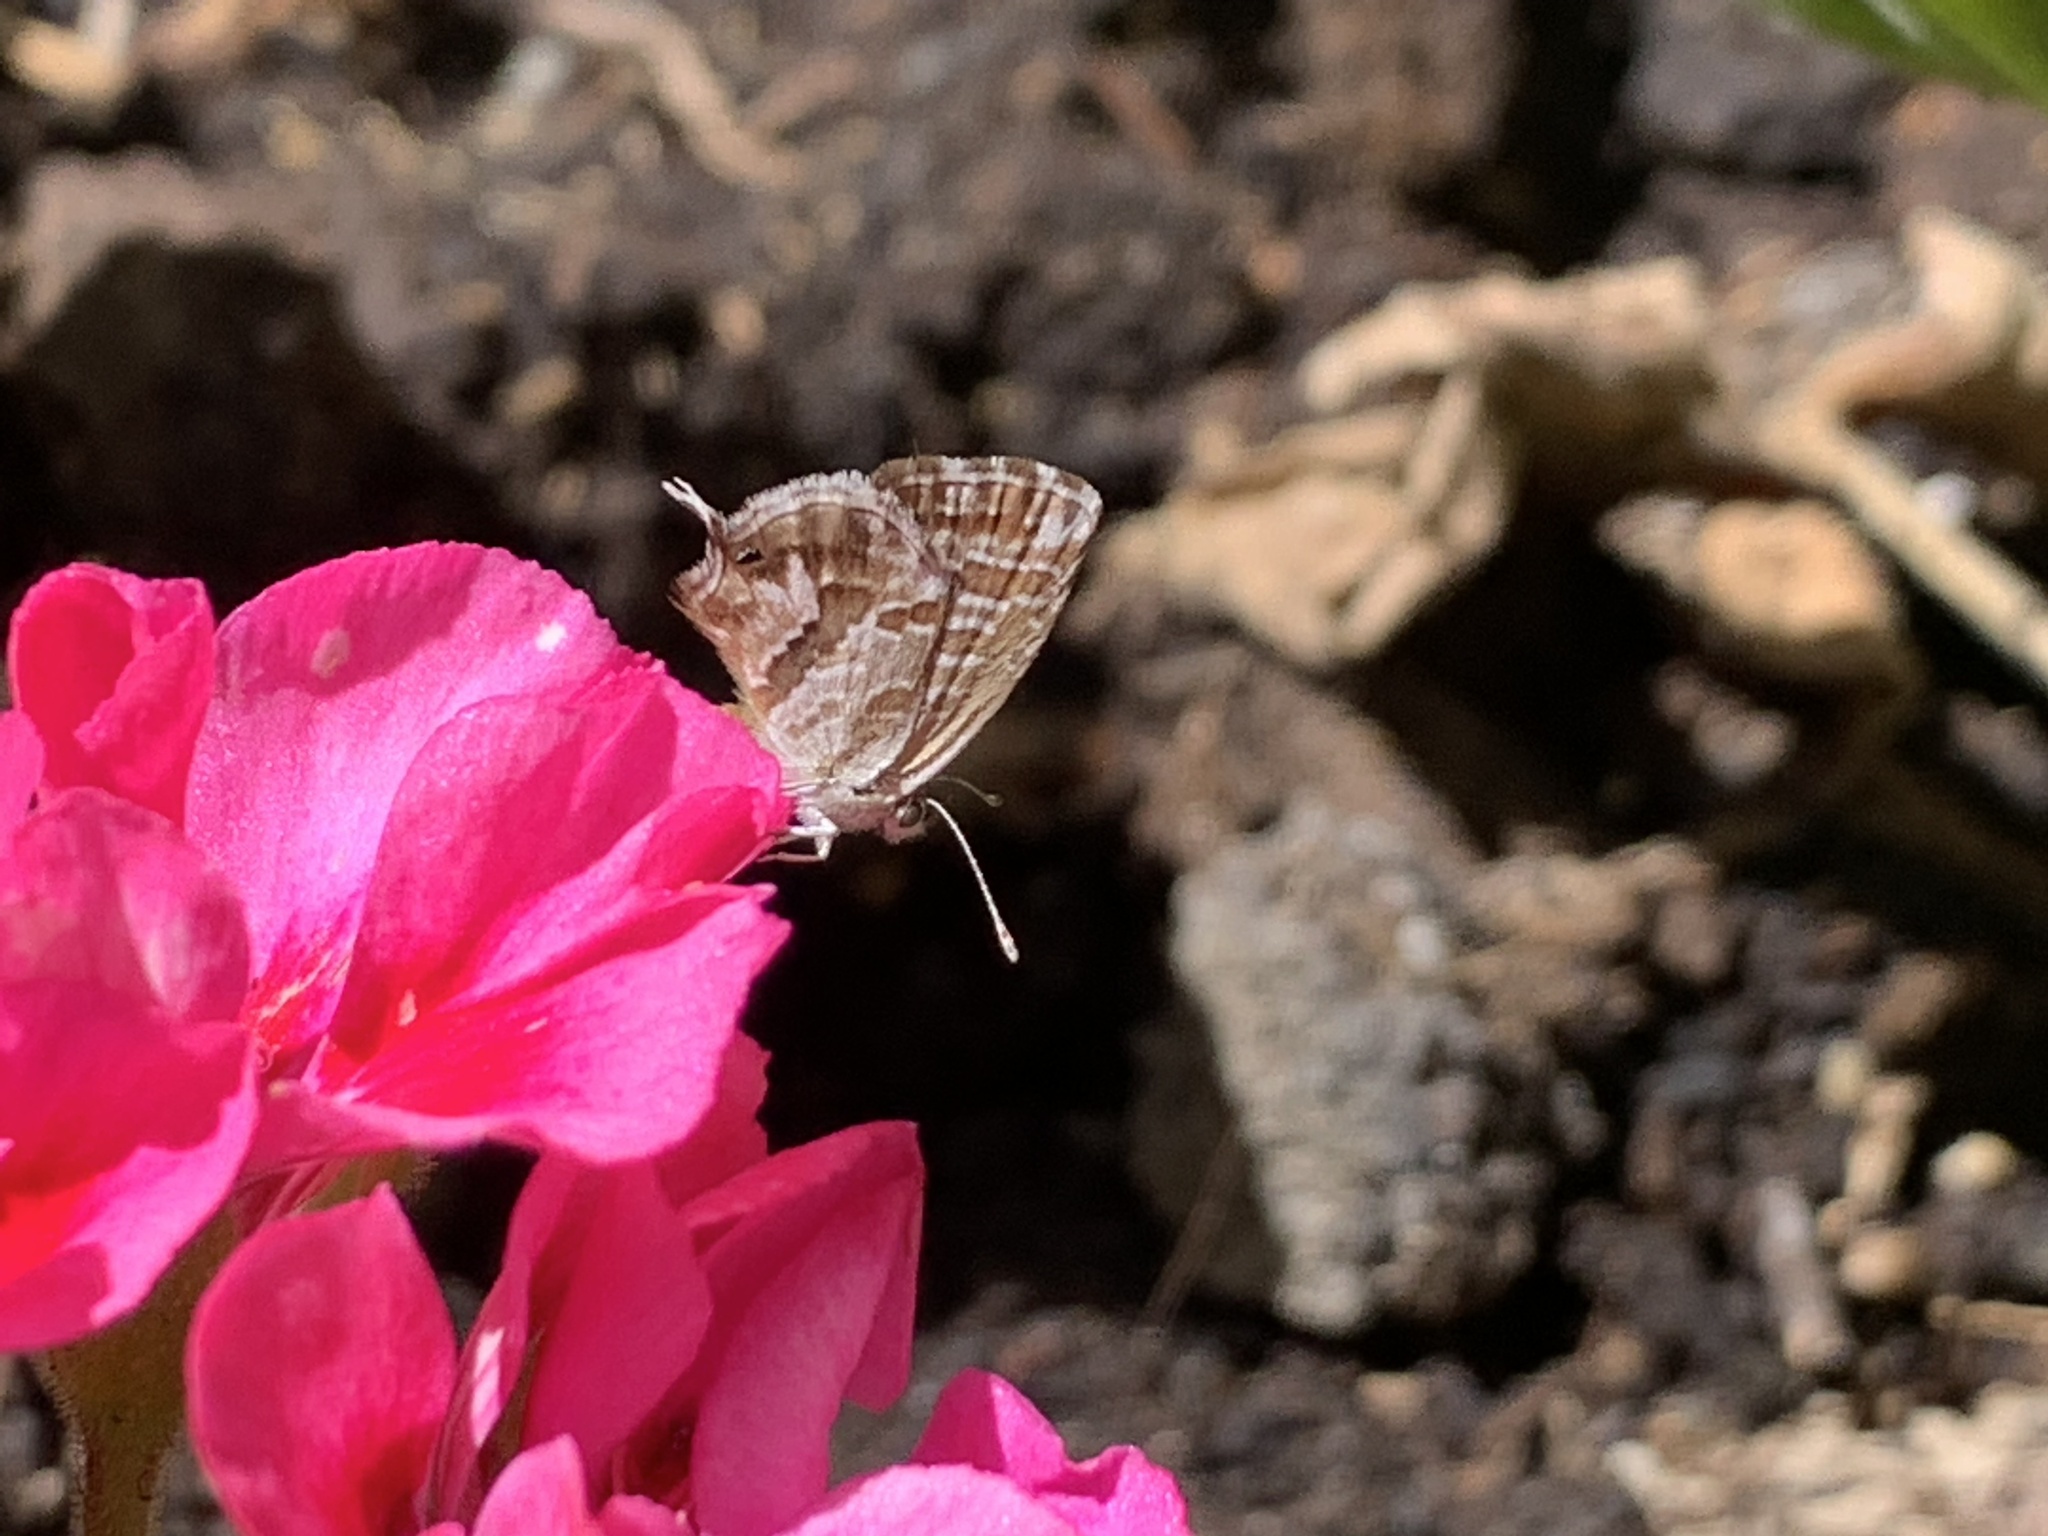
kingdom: Animalia
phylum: Arthropoda
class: Insecta
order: Lepidoptera
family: Lycaenidae
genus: Cacyreus
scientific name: Cacyreus marshalli
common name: Geranium bronze
